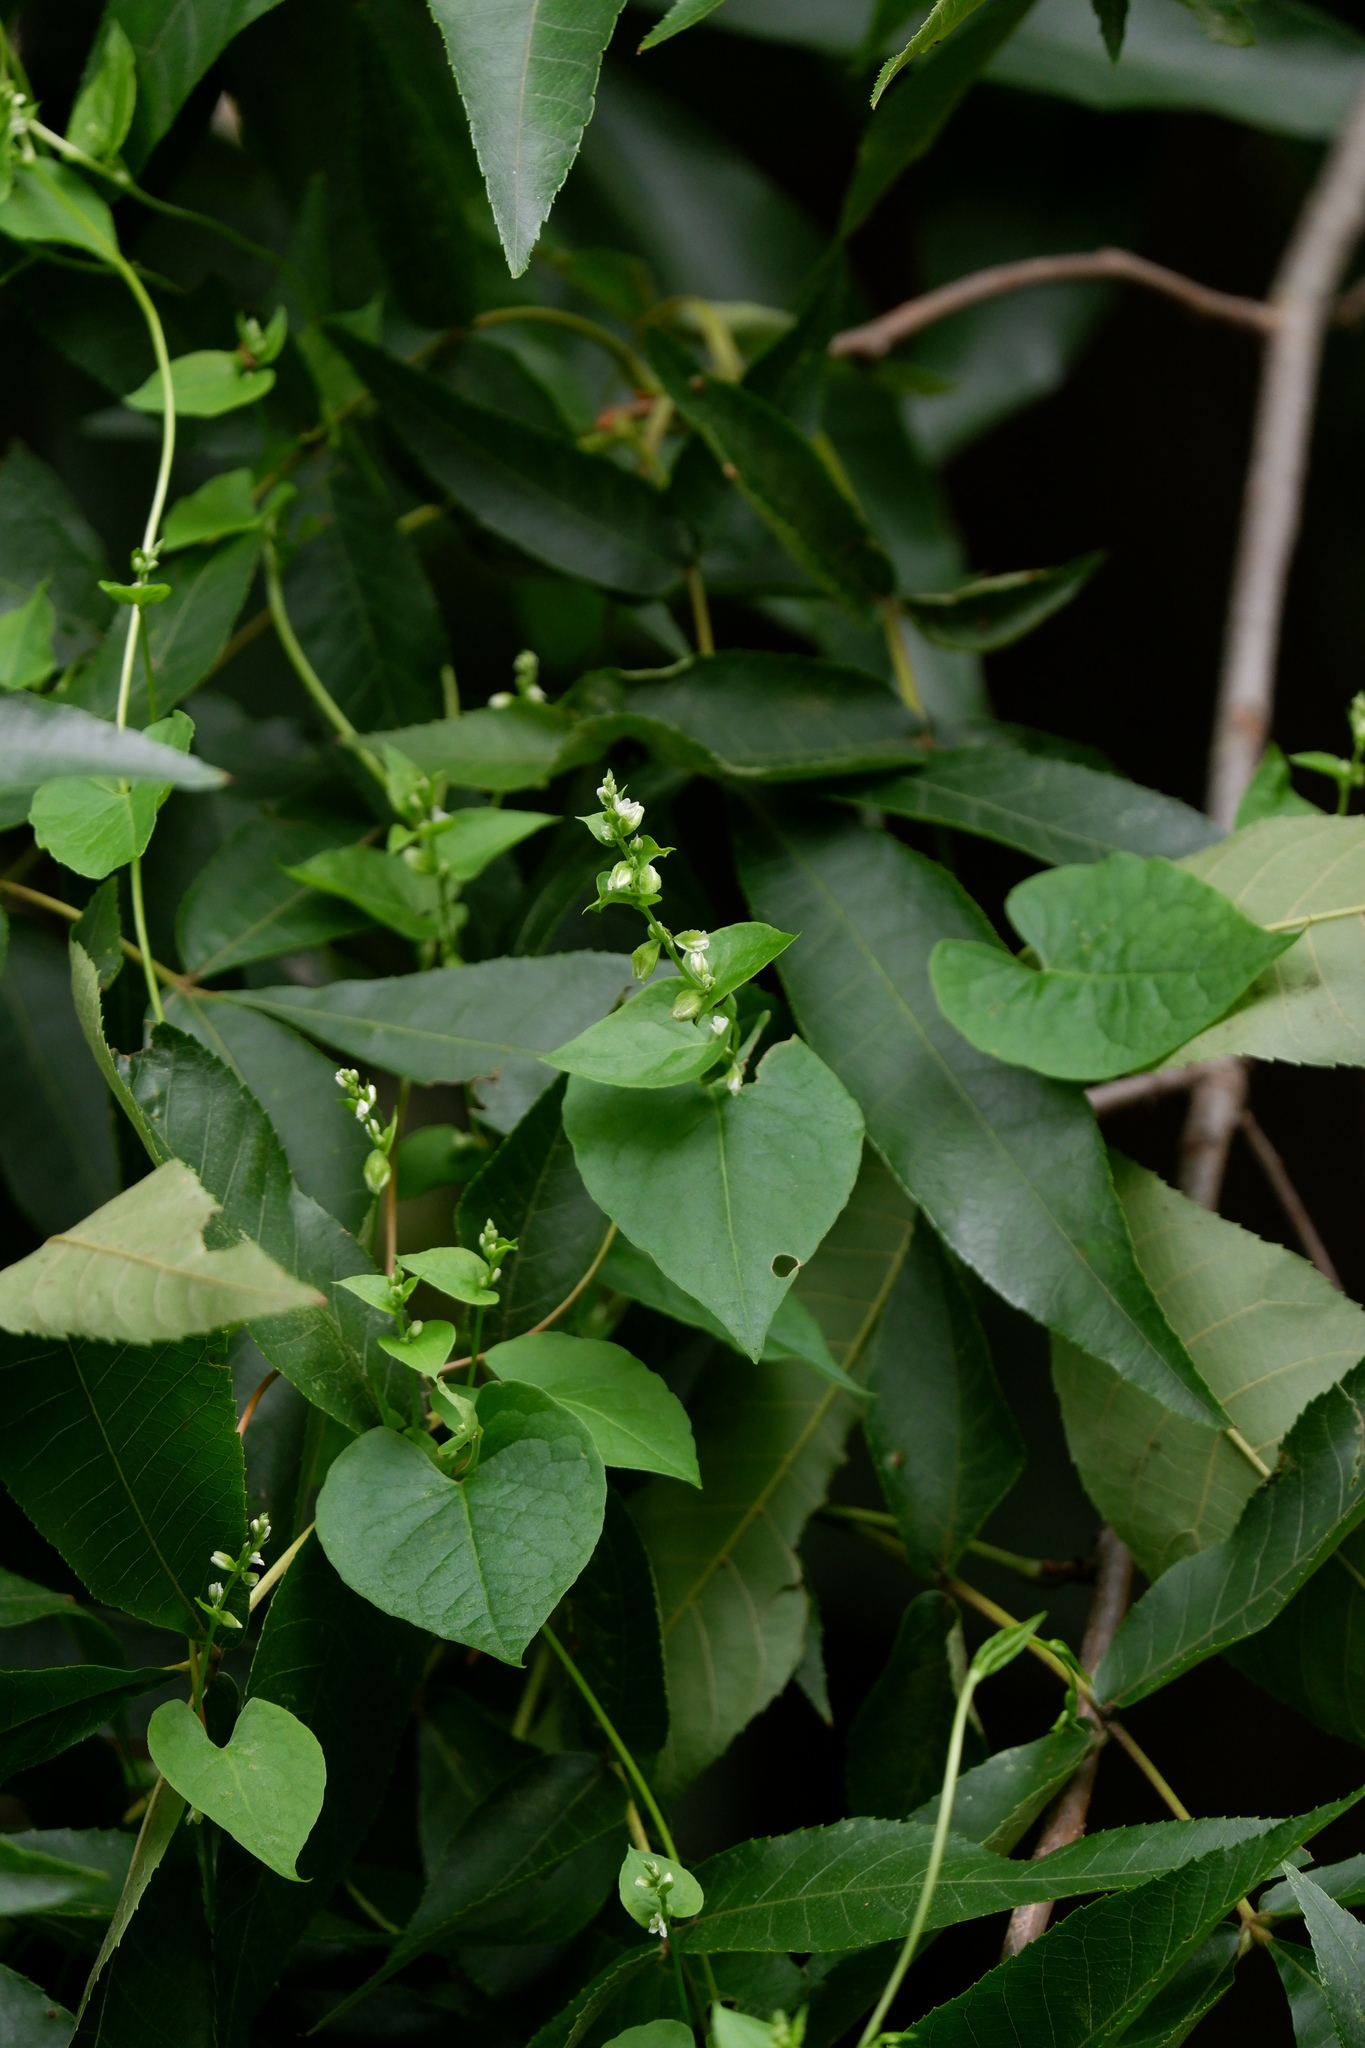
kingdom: Plantae
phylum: Tracheophyta
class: Magnoliopsida
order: Caryophyllales
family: Polygonaceae
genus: Fallopia
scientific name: Fallopia scandens
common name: Climbing false buckwheat
